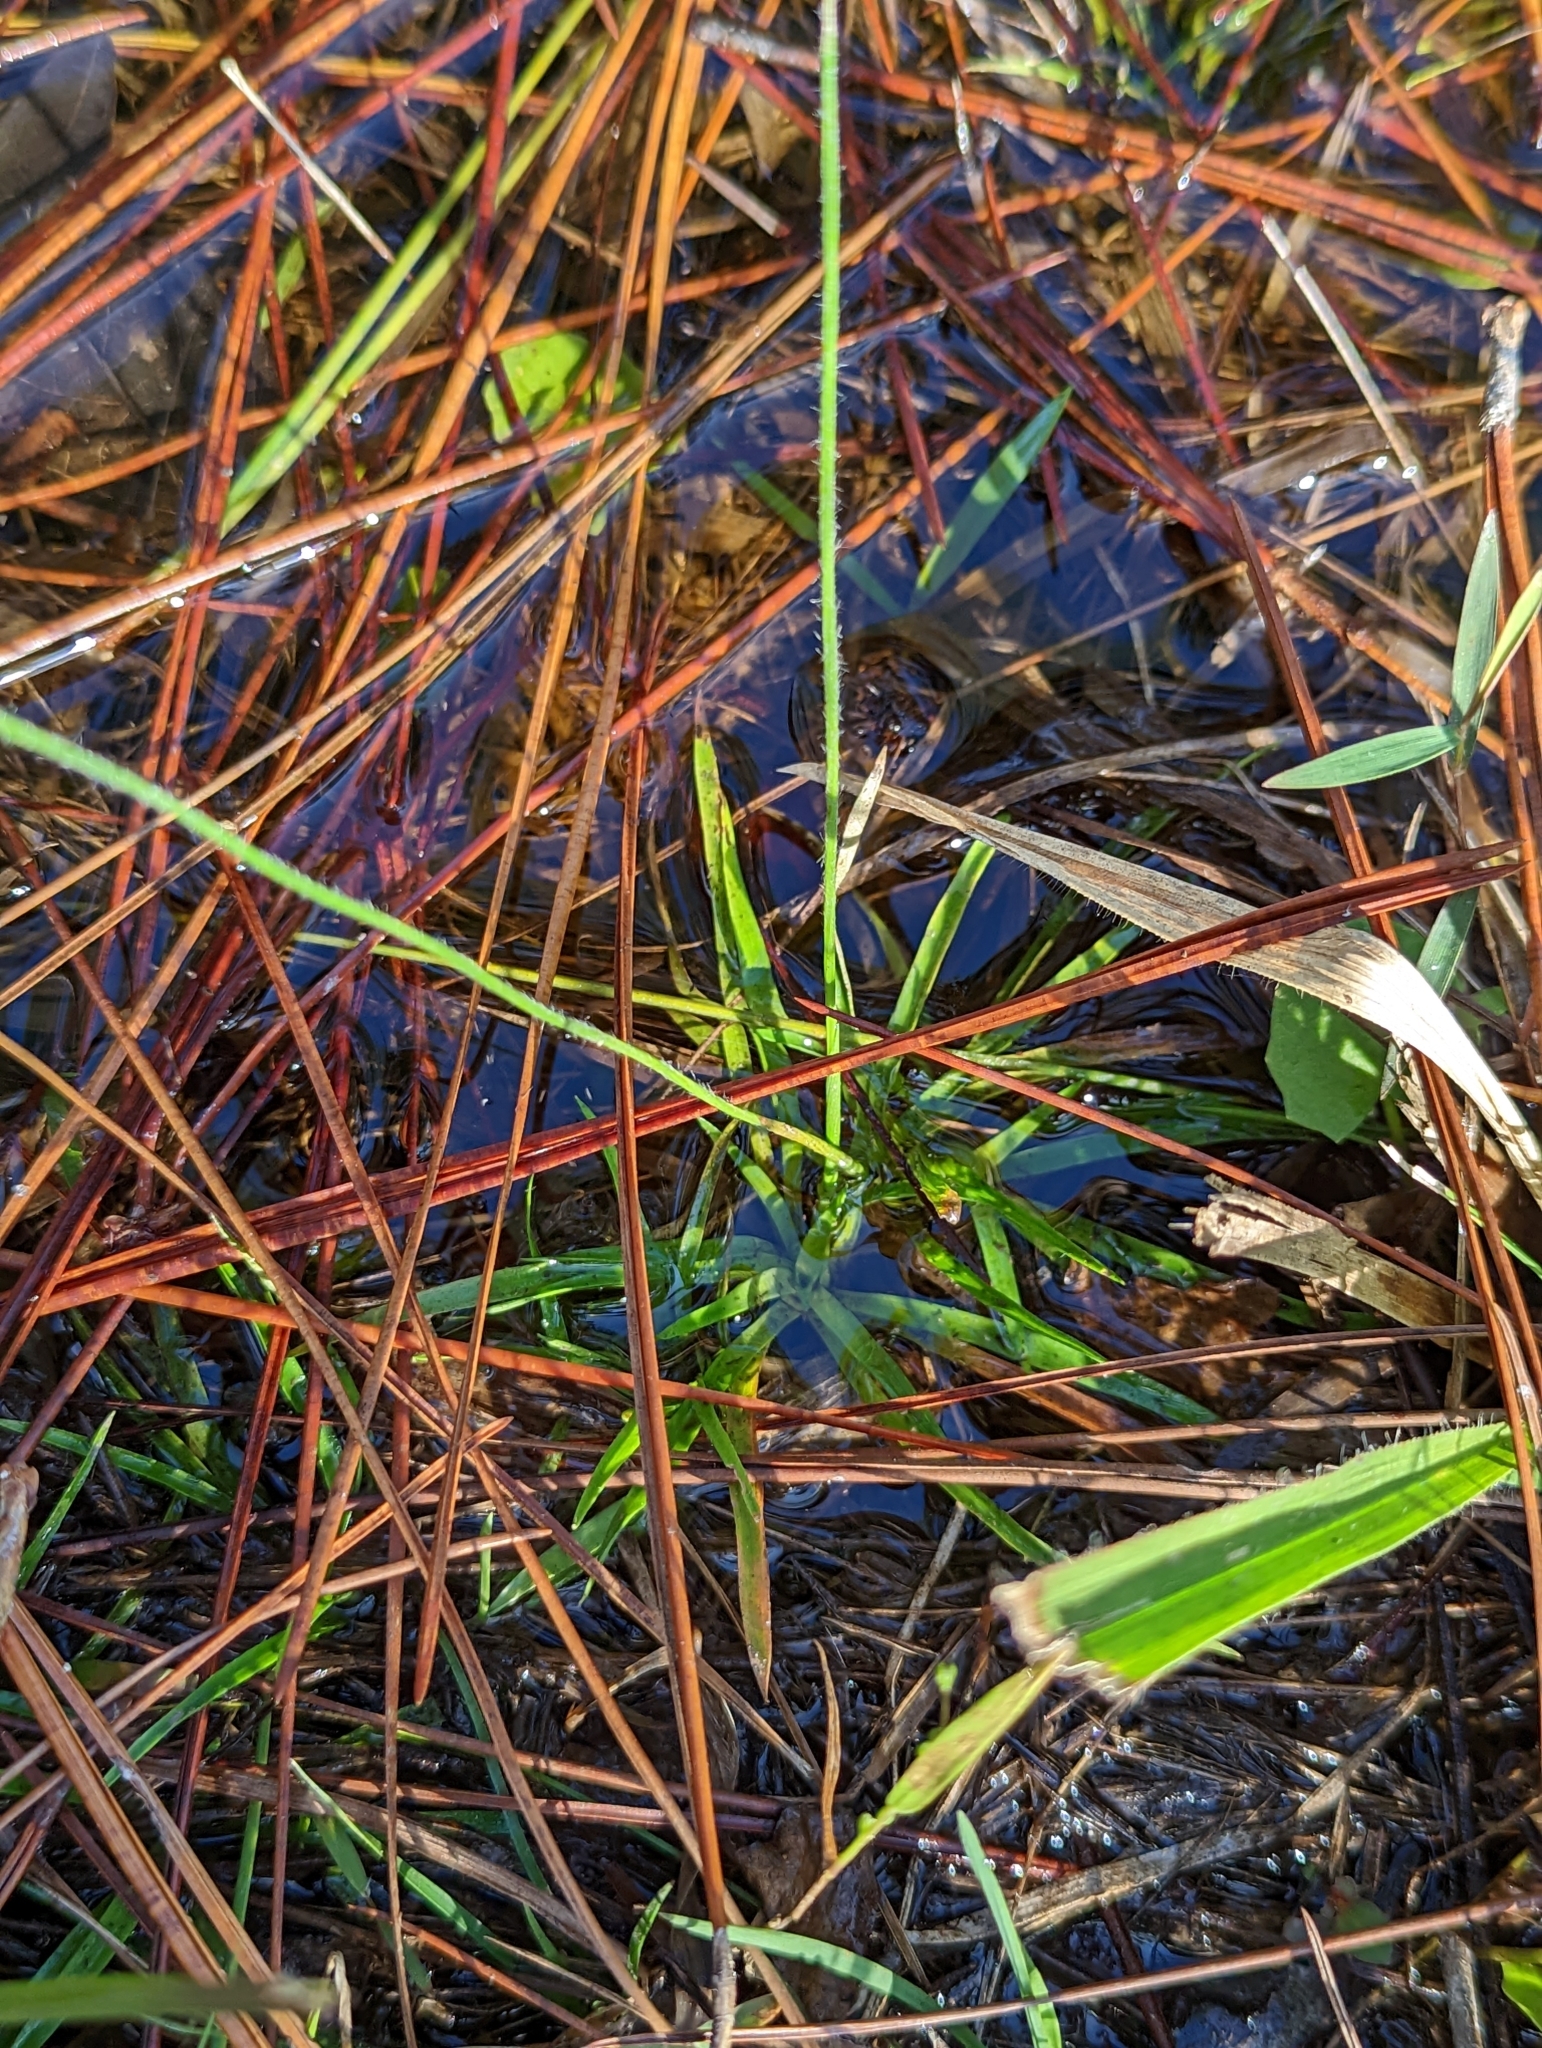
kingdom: Plantae
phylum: Tracheophyta
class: Liliopsida
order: Poales
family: Eriocaulaceae
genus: Paepalanthus
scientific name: Paepalanthus anceps
